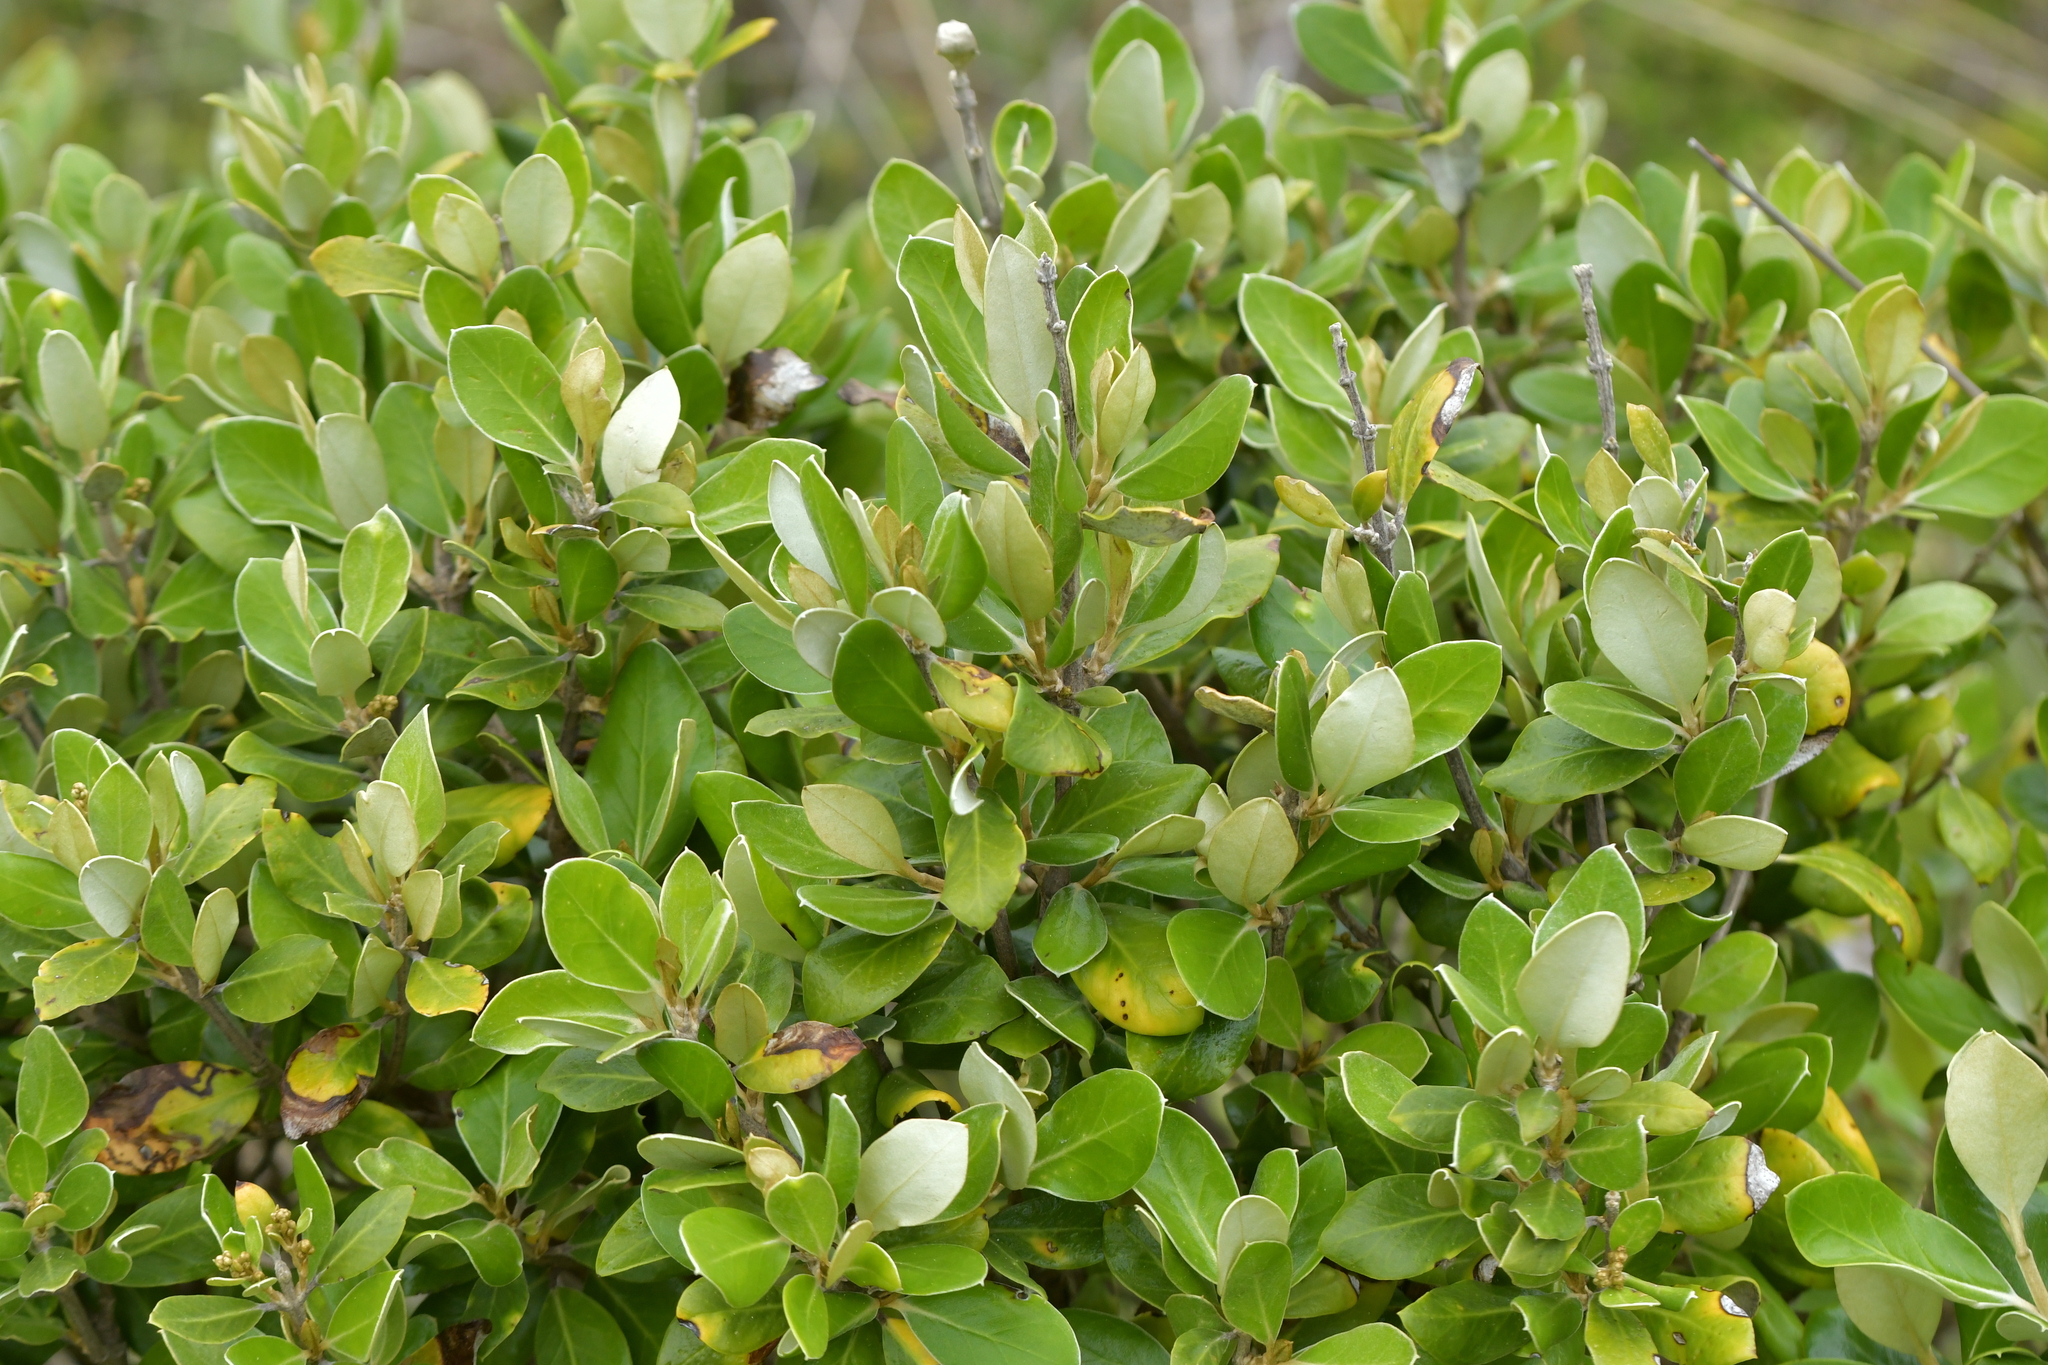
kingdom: Plantae
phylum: Tracheophyta
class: Magnoliopsida
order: Asterales
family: Asteraceae
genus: Olearia
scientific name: Olearia traversiorum
